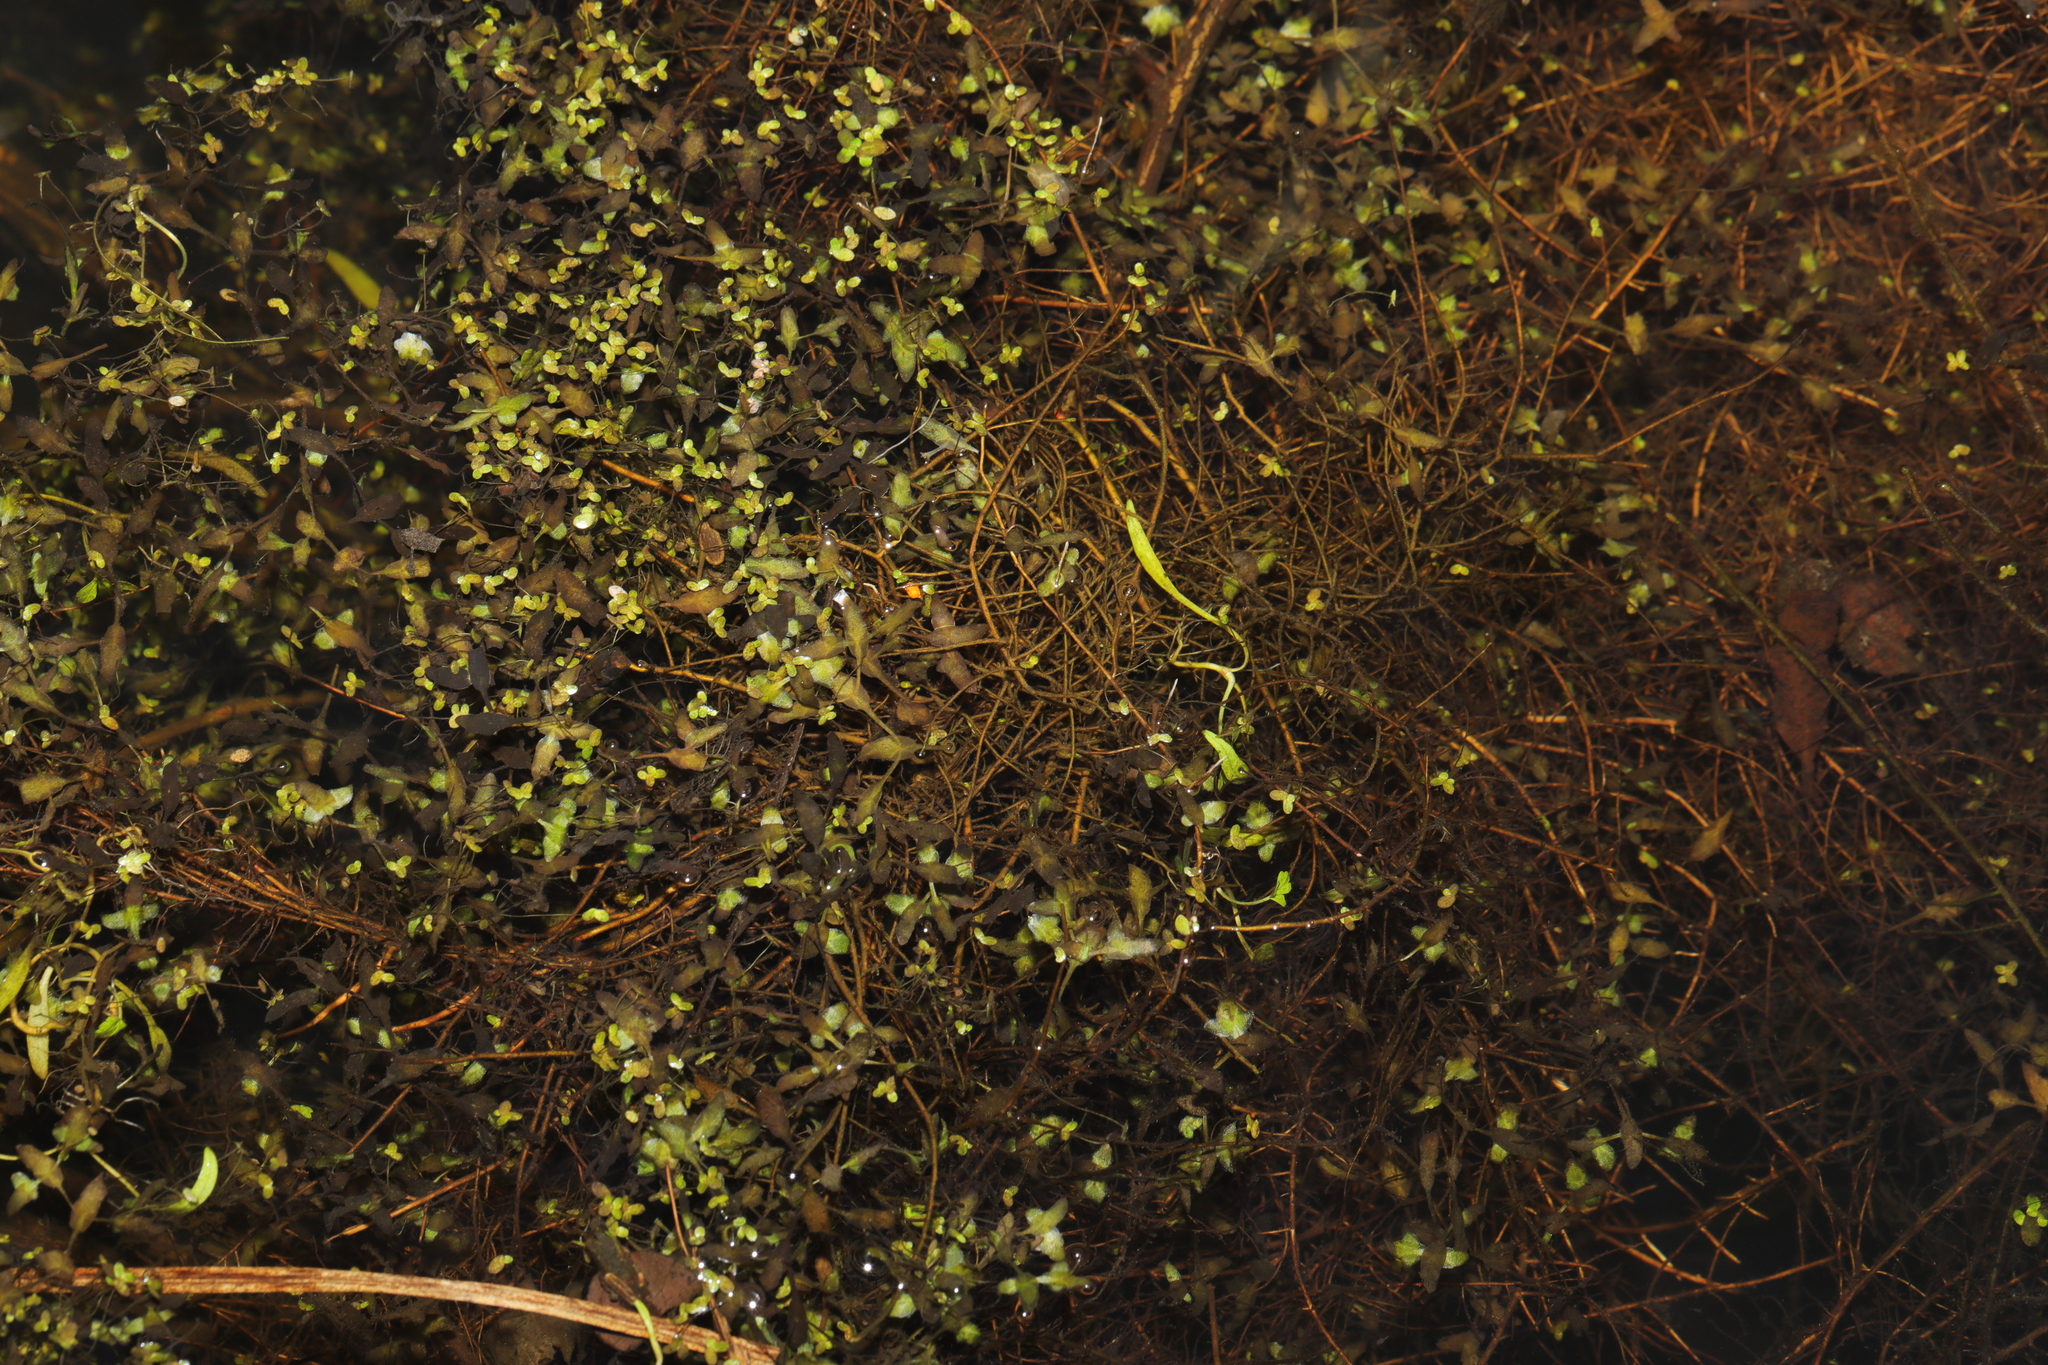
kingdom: Plantae
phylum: Tracheophyta
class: Liliopsida
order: Alismatales
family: Araceae
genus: Lemna
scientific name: Lemna trisulca
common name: Ivy-leaved duckweed
